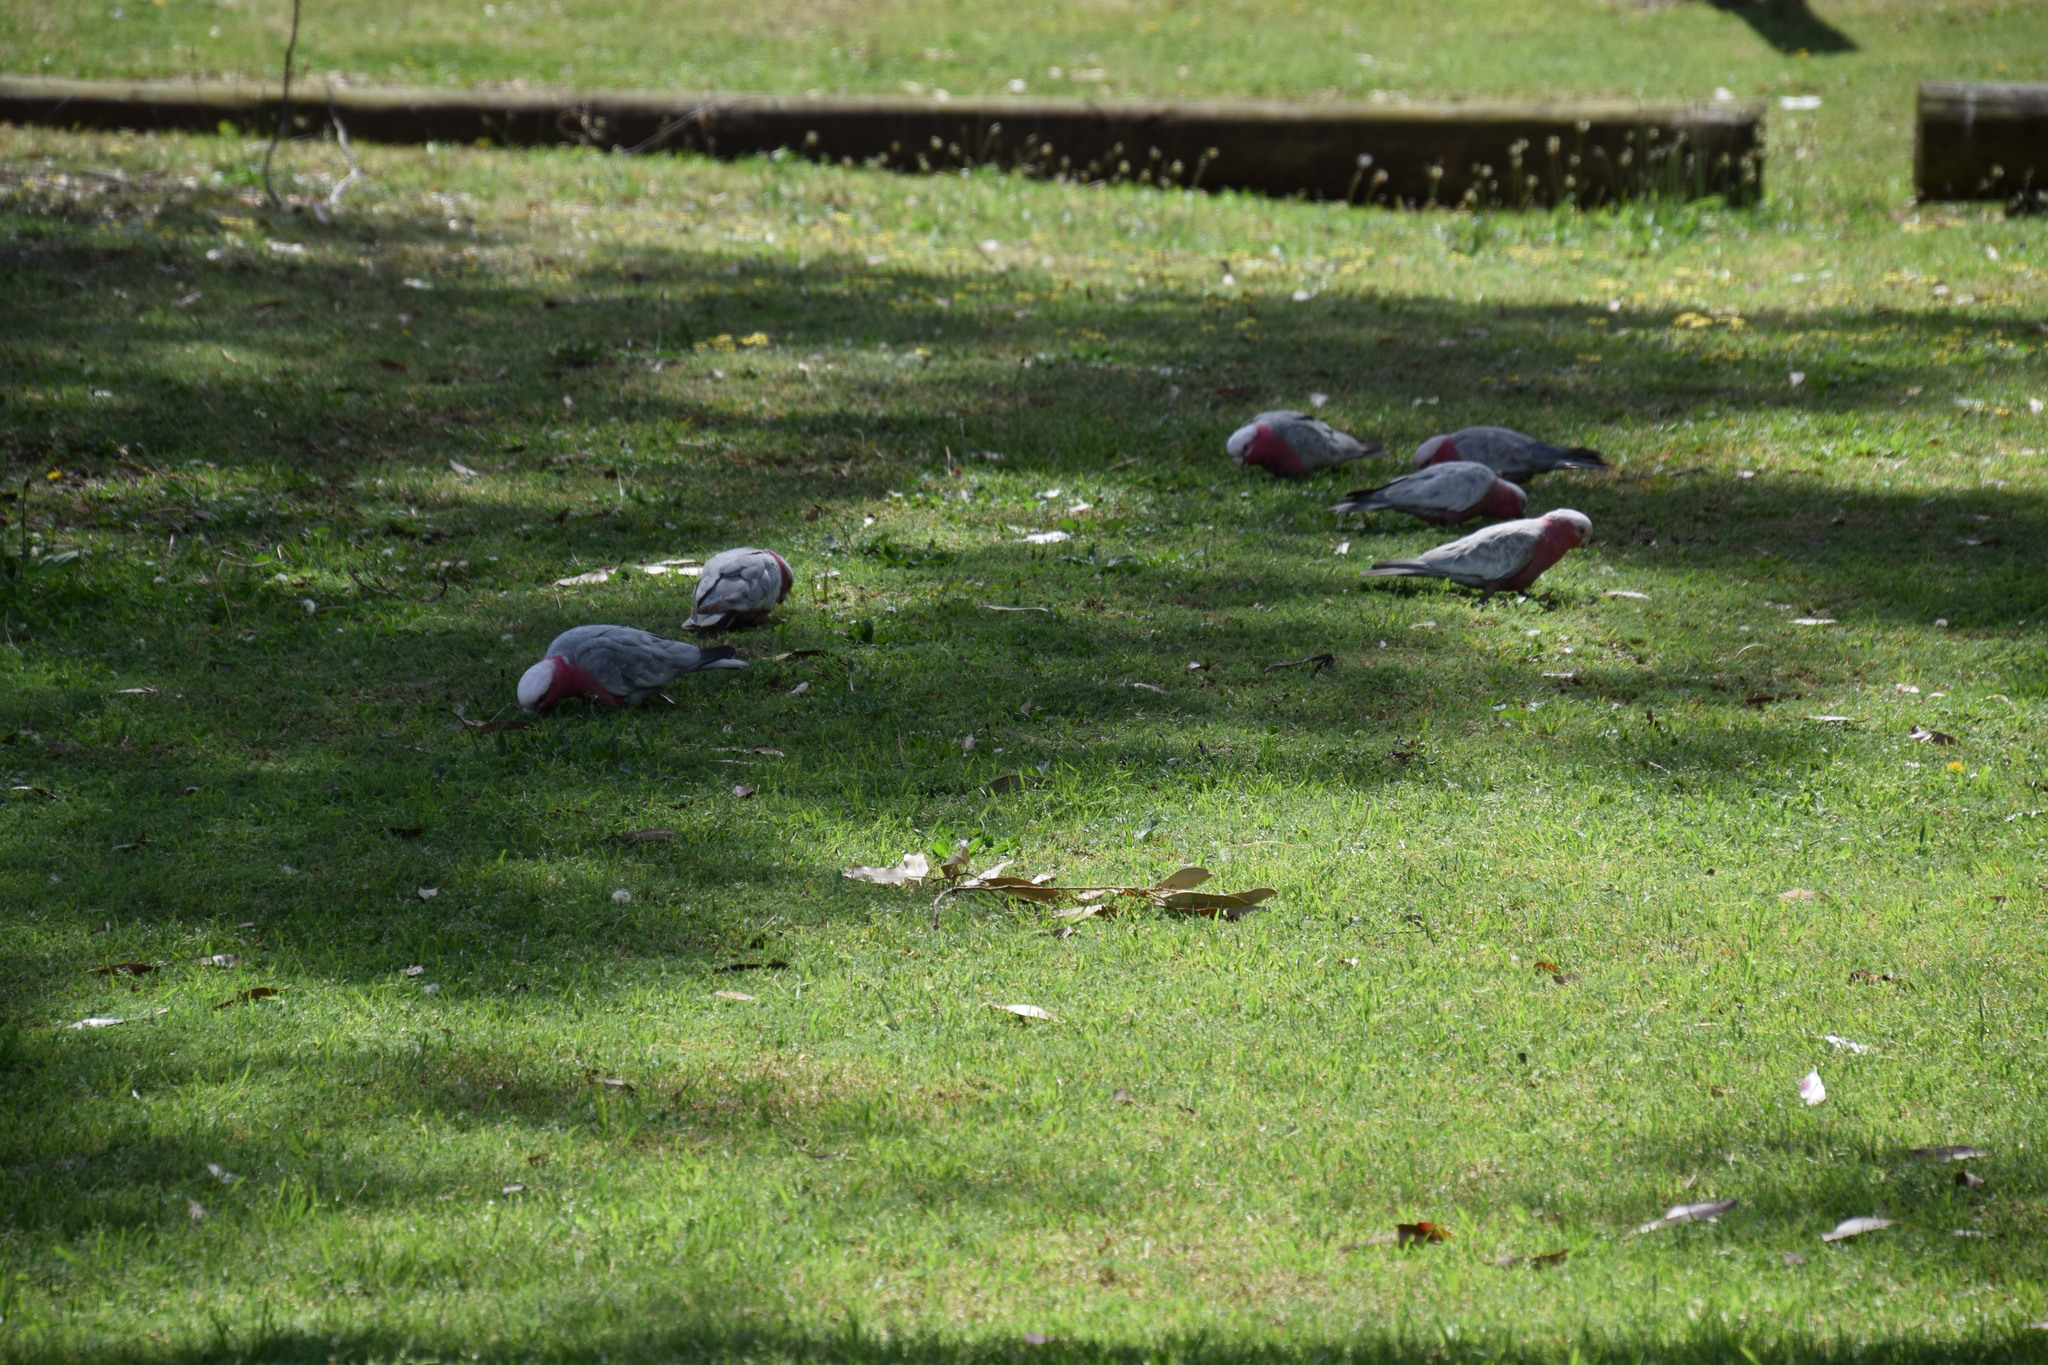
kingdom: Animalia
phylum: Chordata
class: Aves
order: Psittaciformes
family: Psittacidae
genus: Eolophus
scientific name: Eolophus roseicapilla
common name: Galah
